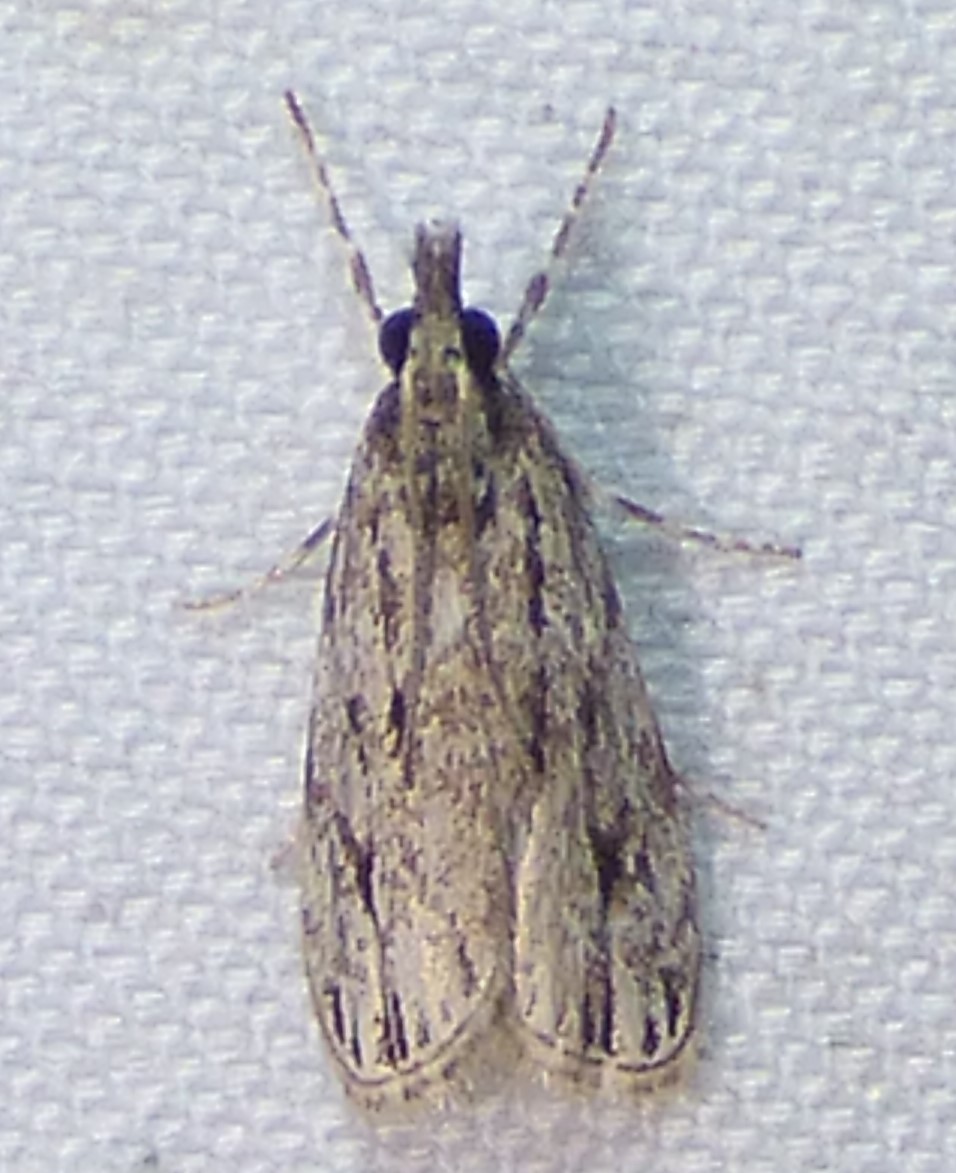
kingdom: Animalia
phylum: Arthropoda
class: Insecta
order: Lepidoptera
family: Crambidae
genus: Eudonia
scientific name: Eudonia strigalis
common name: Striped eudonia moth
